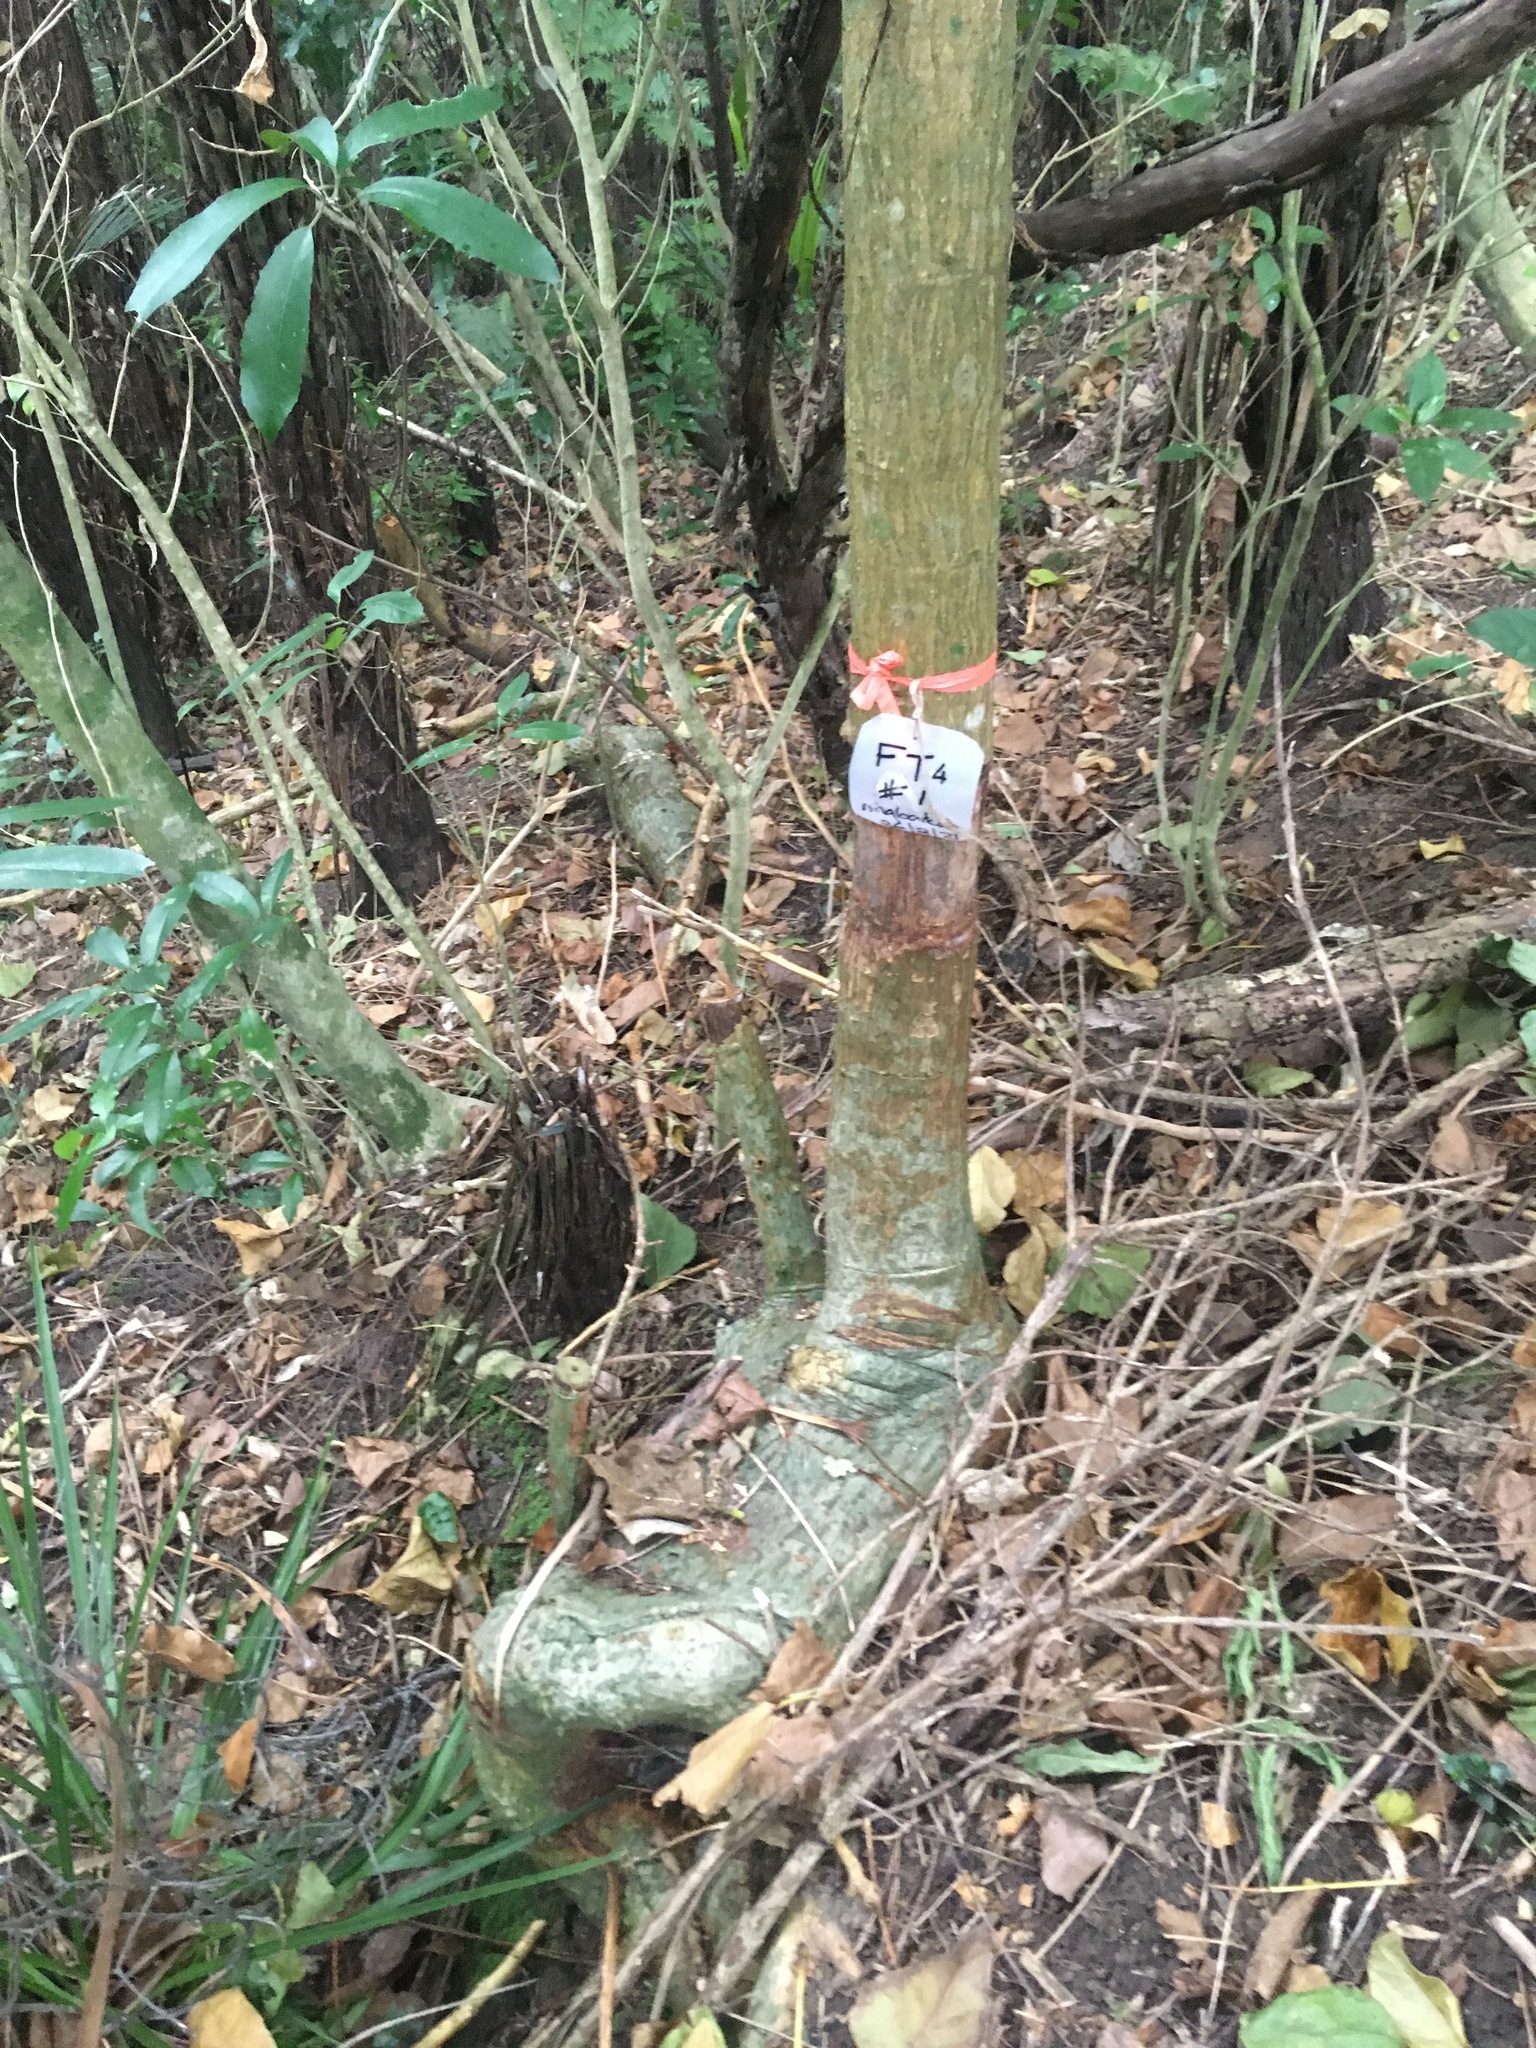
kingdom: Plantae
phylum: Tracheophyta
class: Magnoliopsida
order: Fabales
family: Fabaceae
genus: Erythrina
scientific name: Erythrina sykesii
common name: Coraltree
